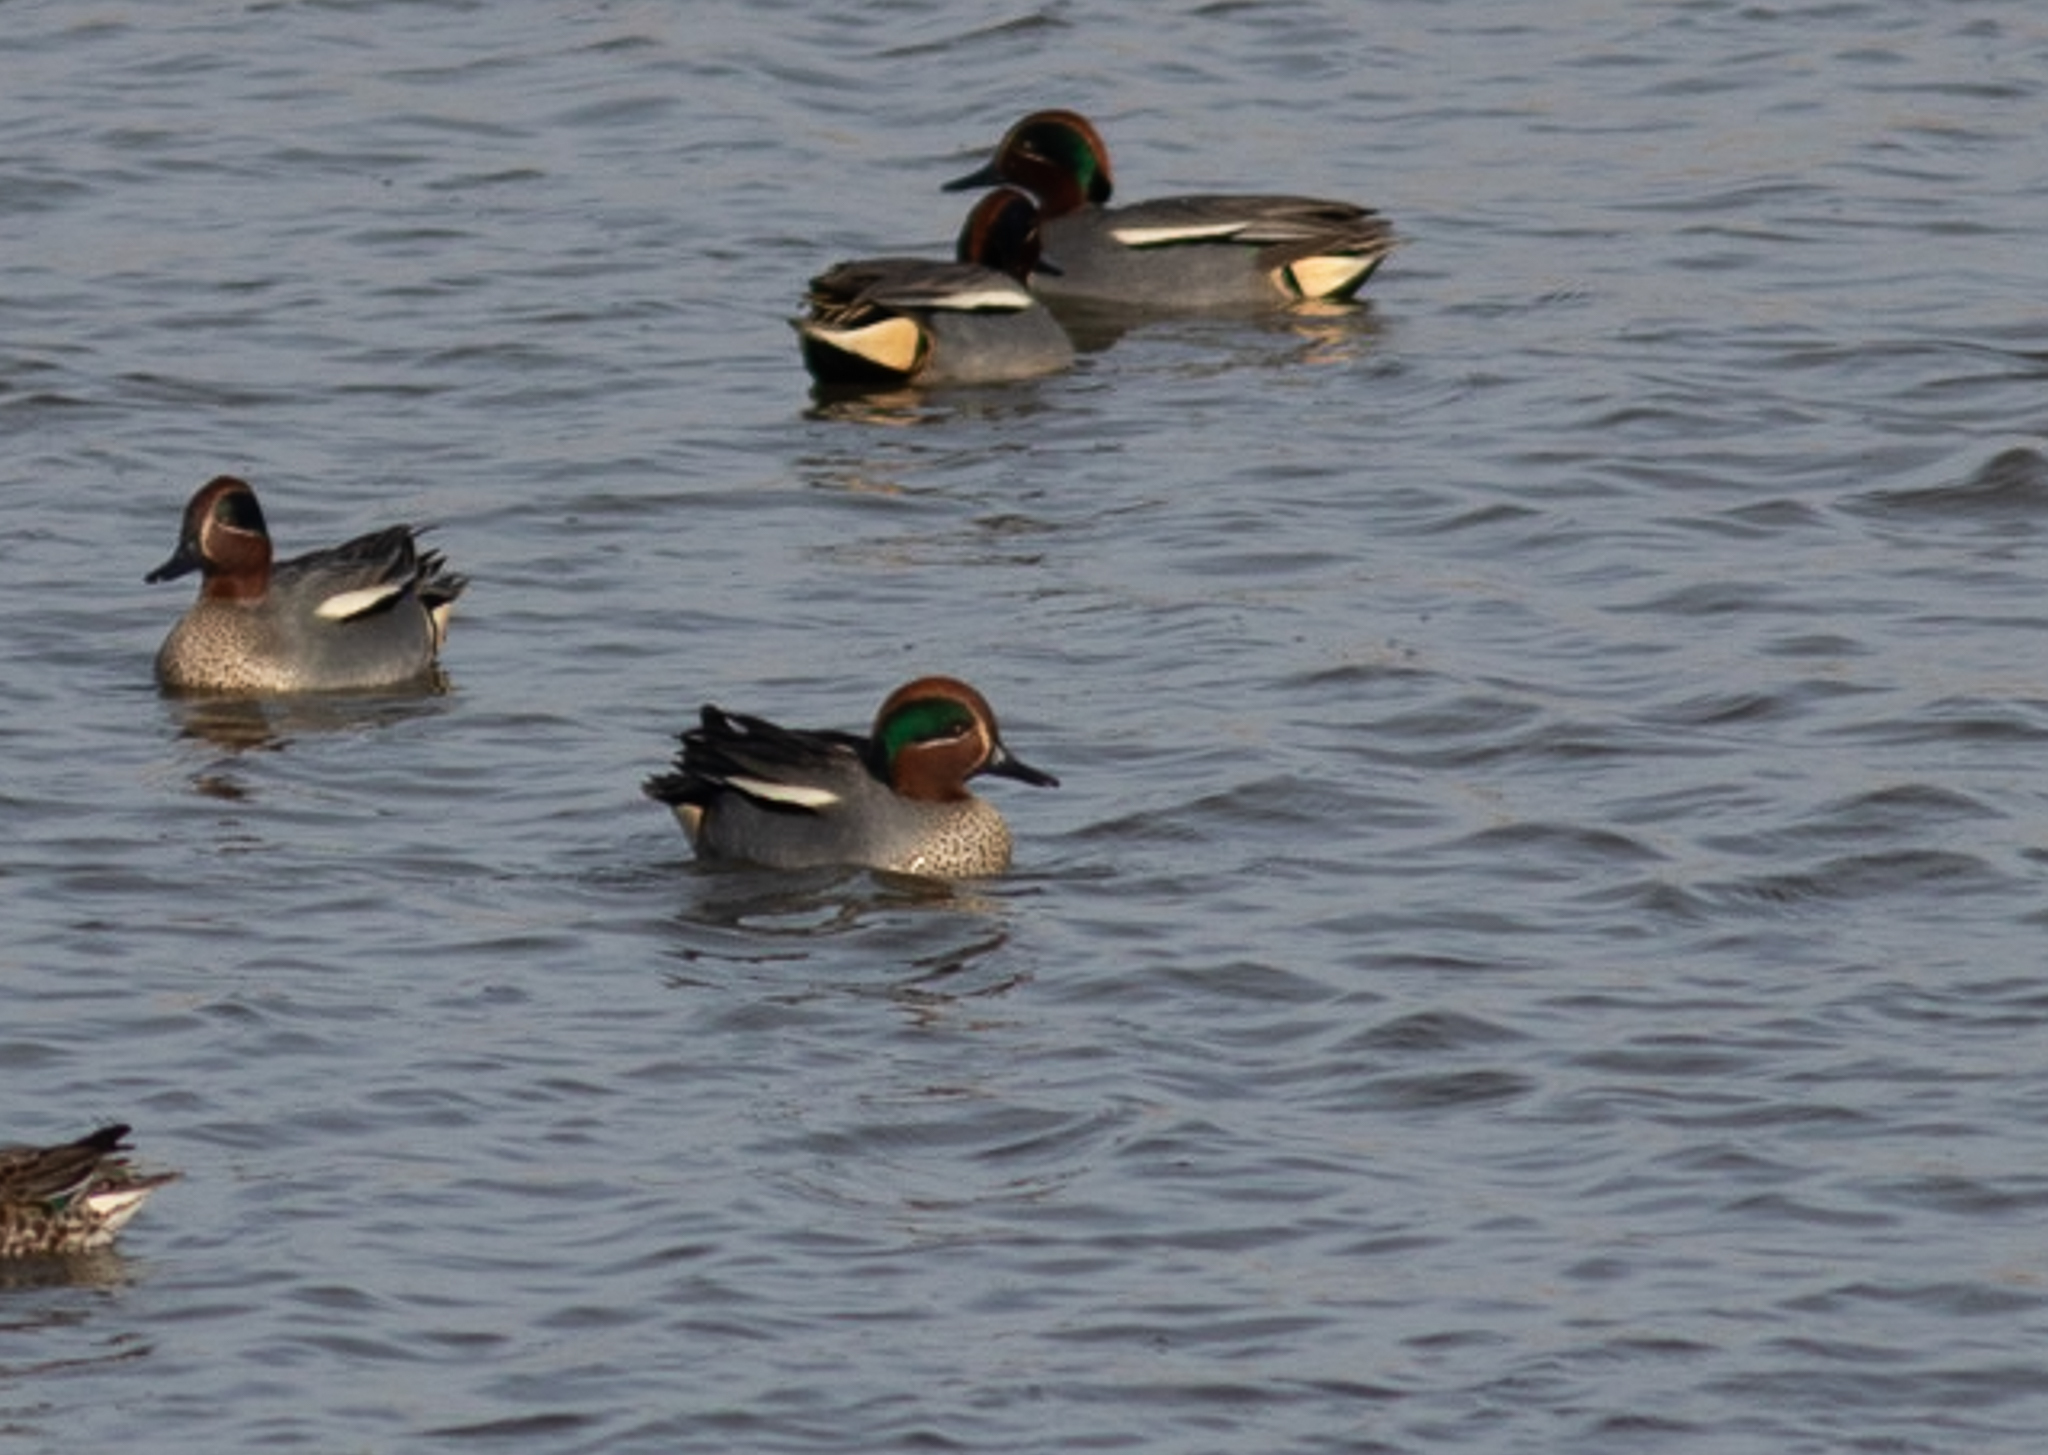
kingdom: Animalia
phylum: Chordata
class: Aves
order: Anseriformes
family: Anatidae
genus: Anas
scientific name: Anas crecca
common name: Eurasian teal
